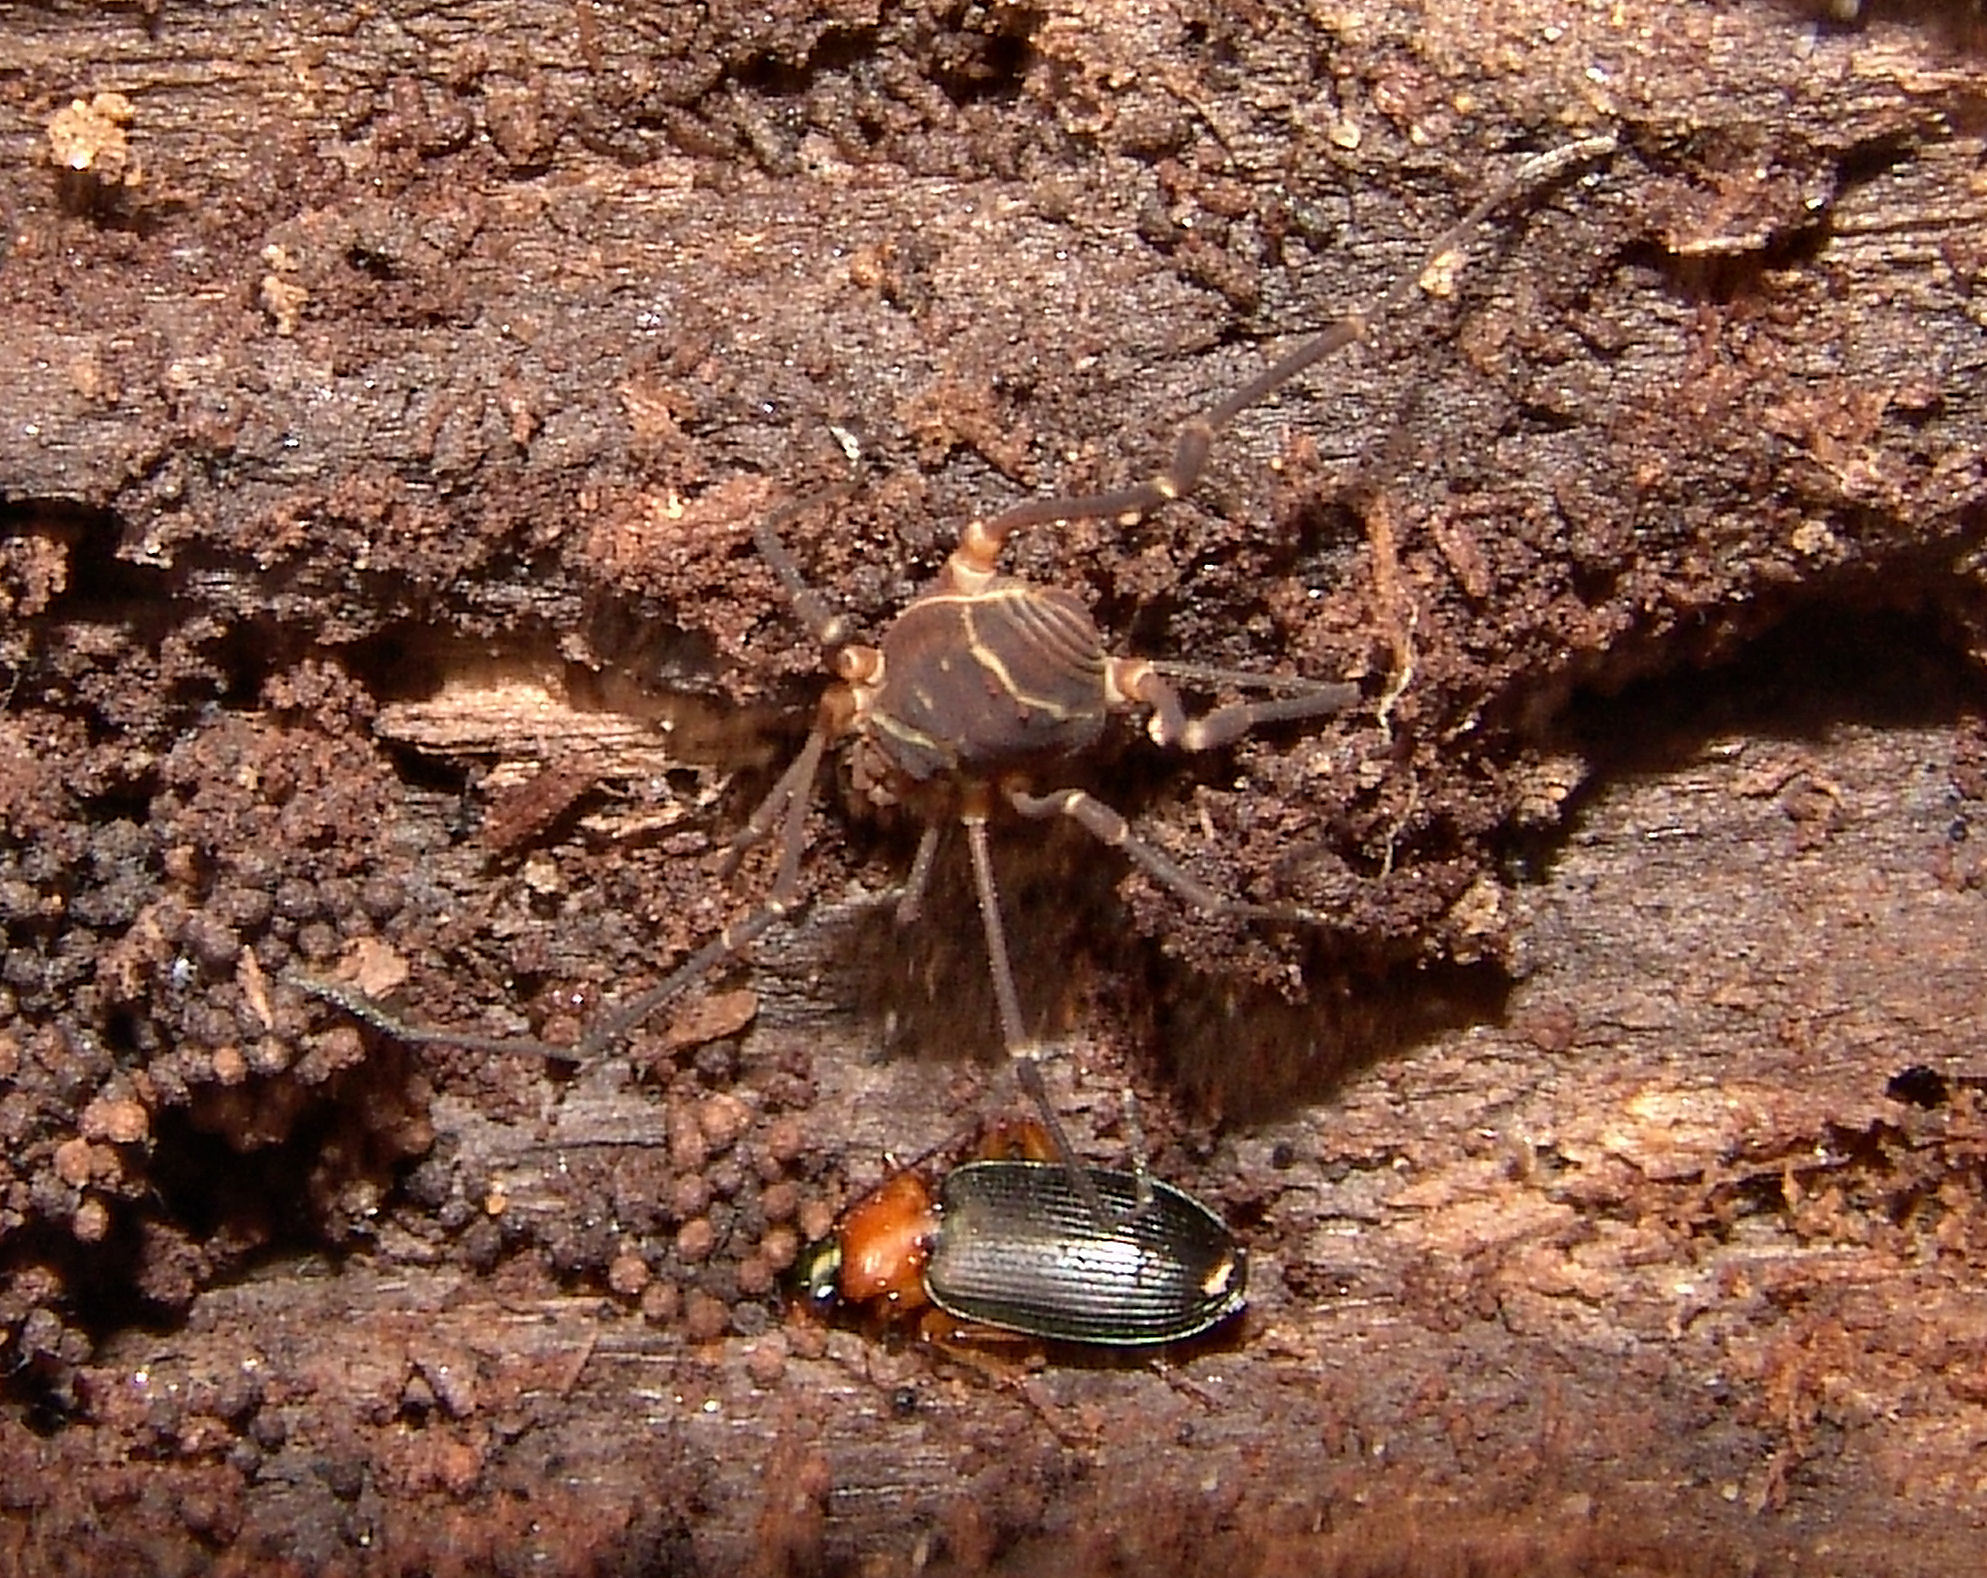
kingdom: Animalia
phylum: Arthropoda
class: Insecta
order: Coleoptera
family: Carabidae
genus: Agonum
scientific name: Agonum decorum
